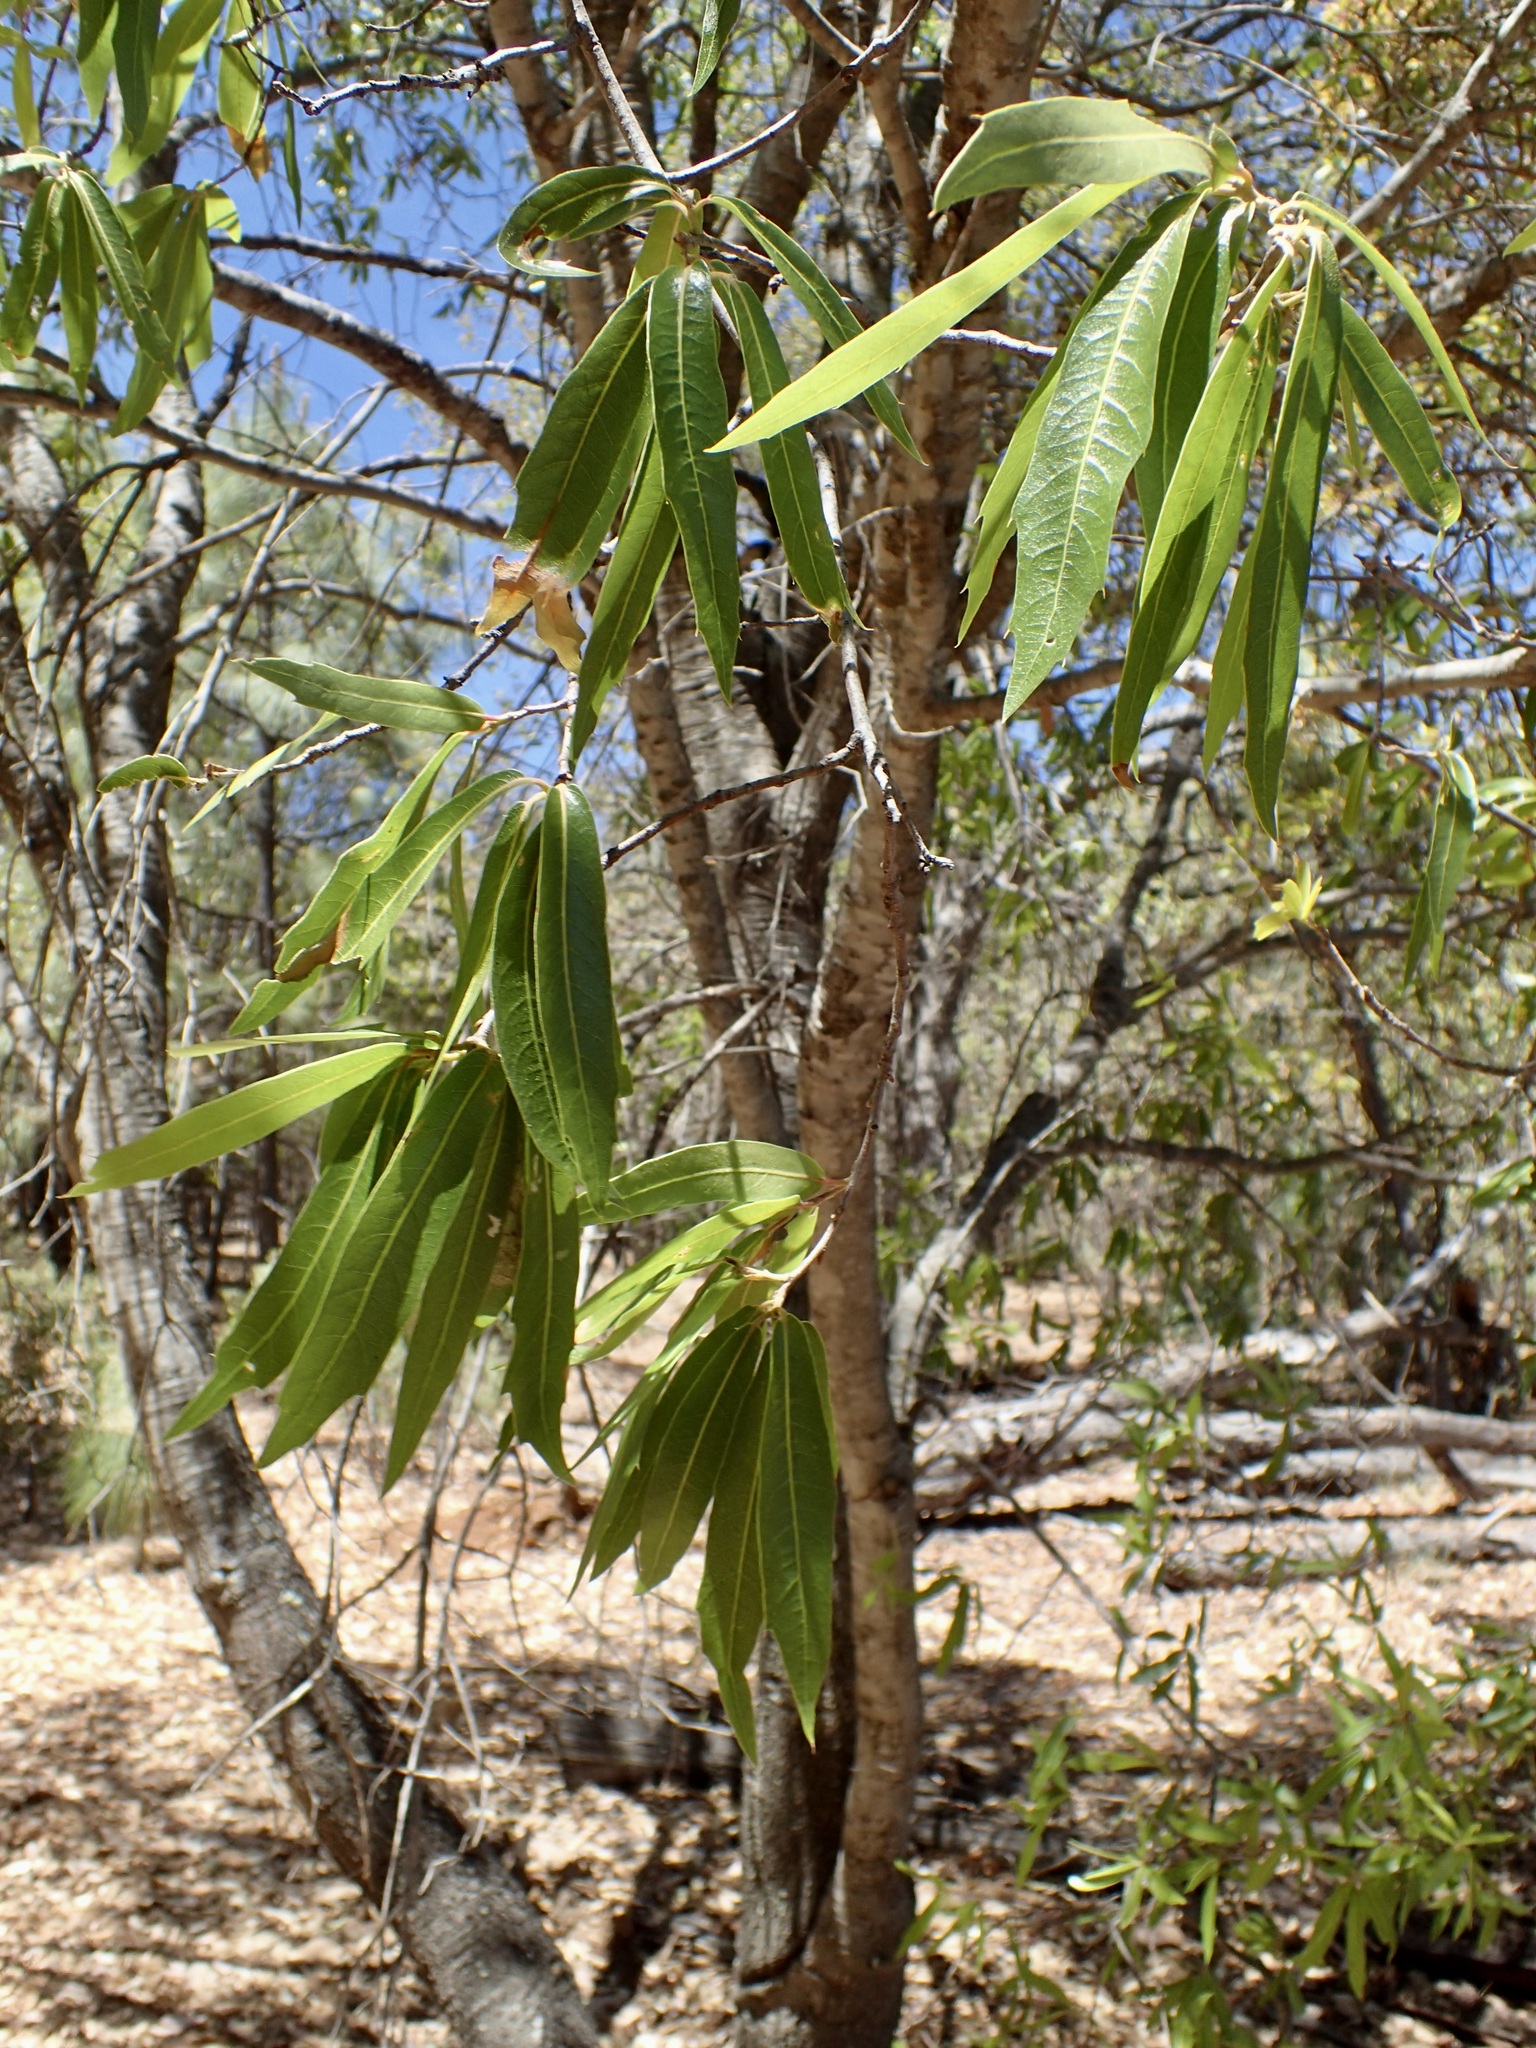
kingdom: Plantae
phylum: Tracheophyta
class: Magnoliopsida
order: Fagales
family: Fagaceae
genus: Quercus
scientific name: Quercus viminea
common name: Mexican willow oak
